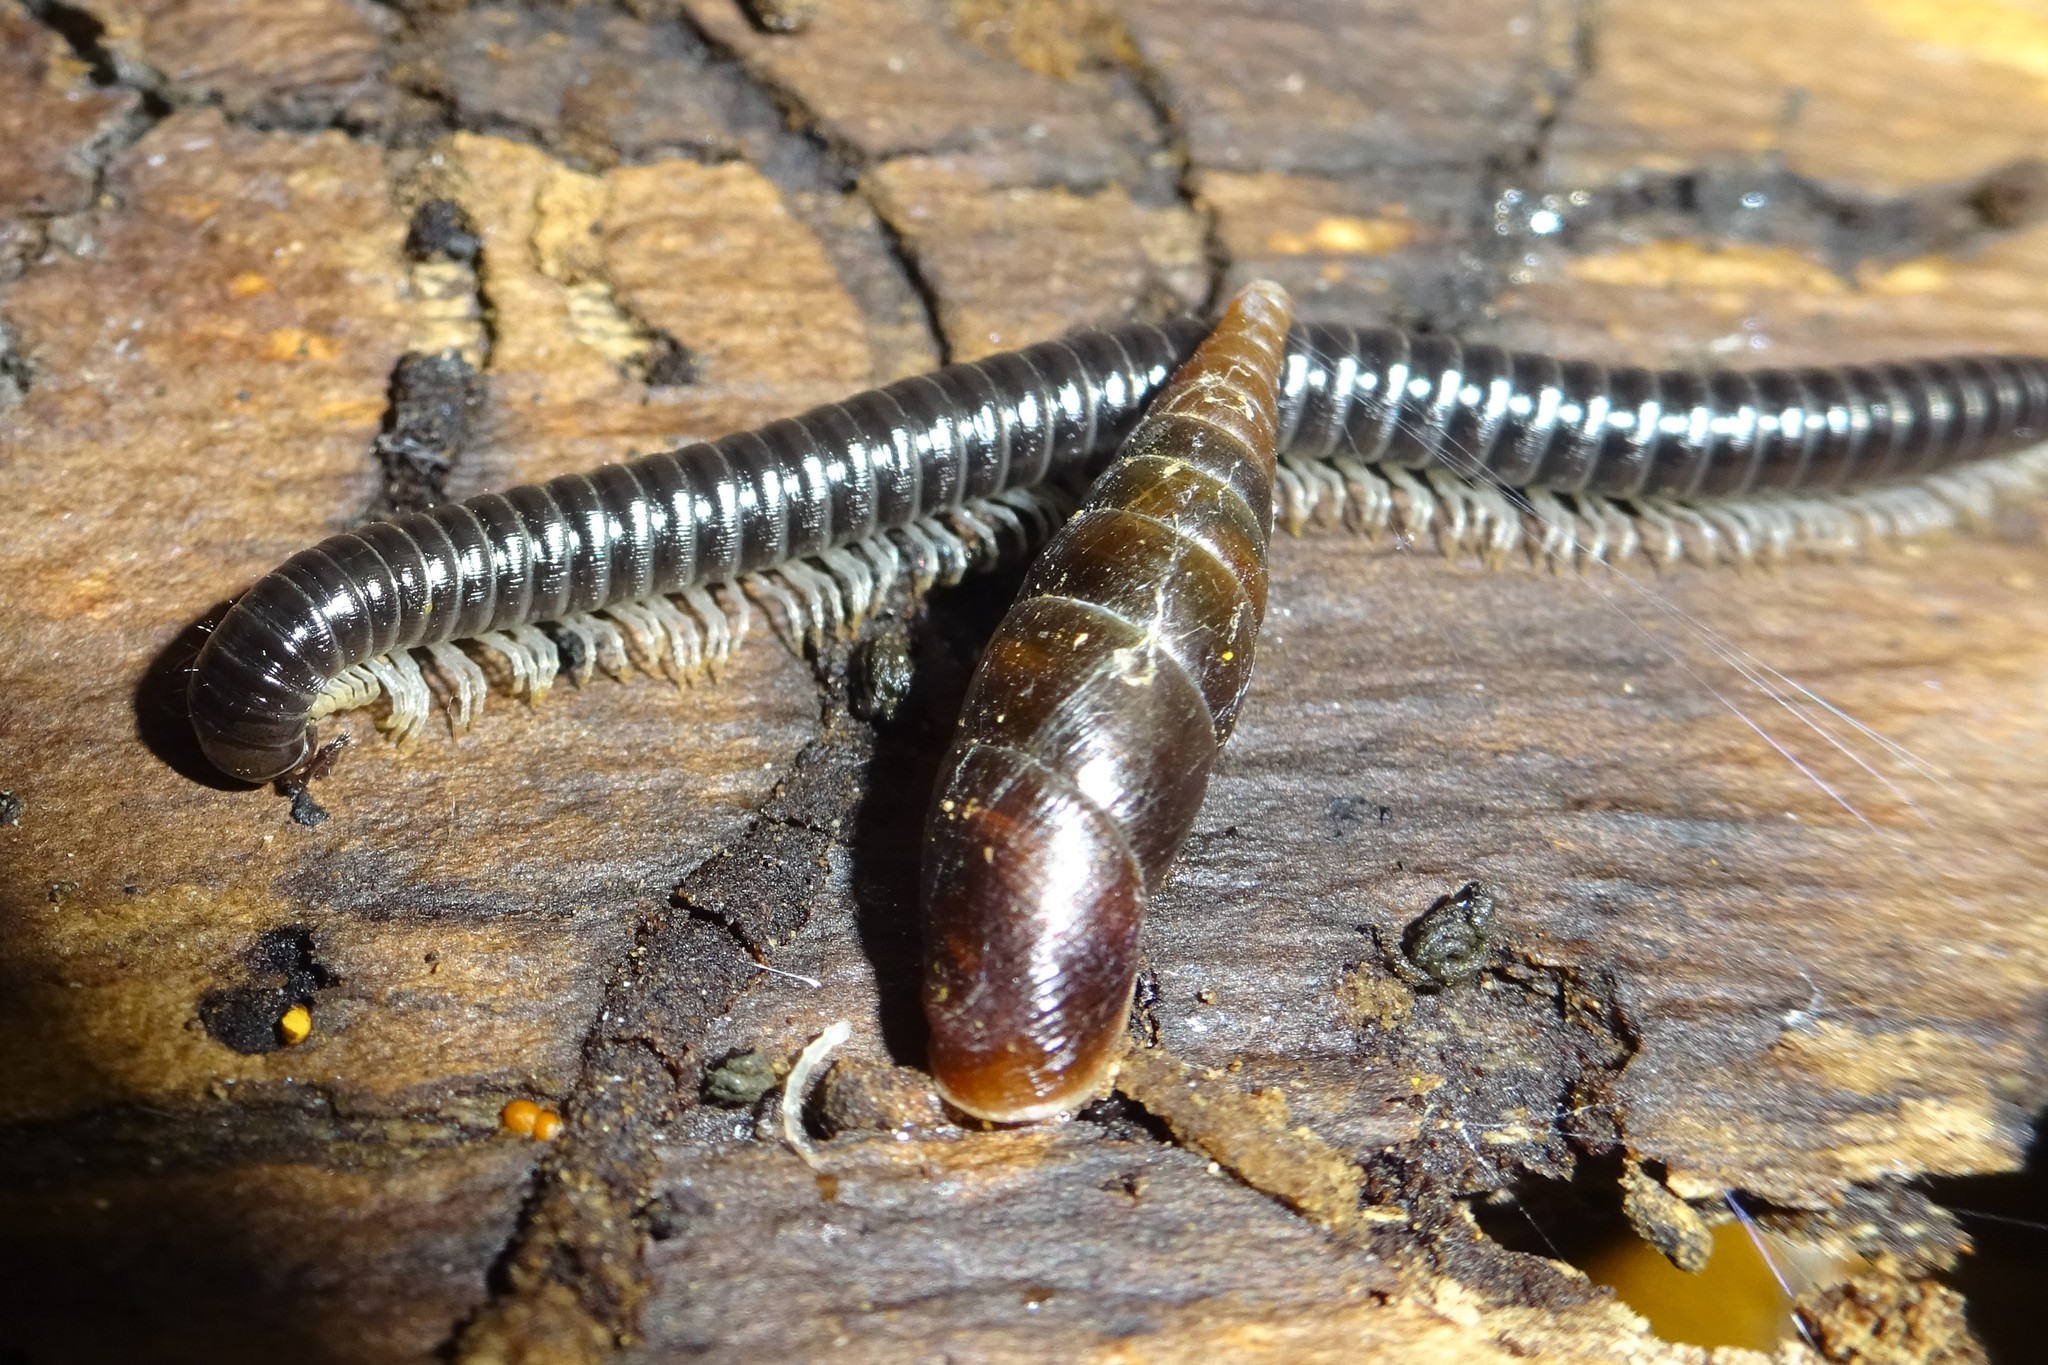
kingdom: Animalia
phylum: Mollusca
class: Gastropoda
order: Stylommatophora
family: Clausiliidae
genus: Cochlodina
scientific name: Cochlodina laminata
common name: Plaited door snail
